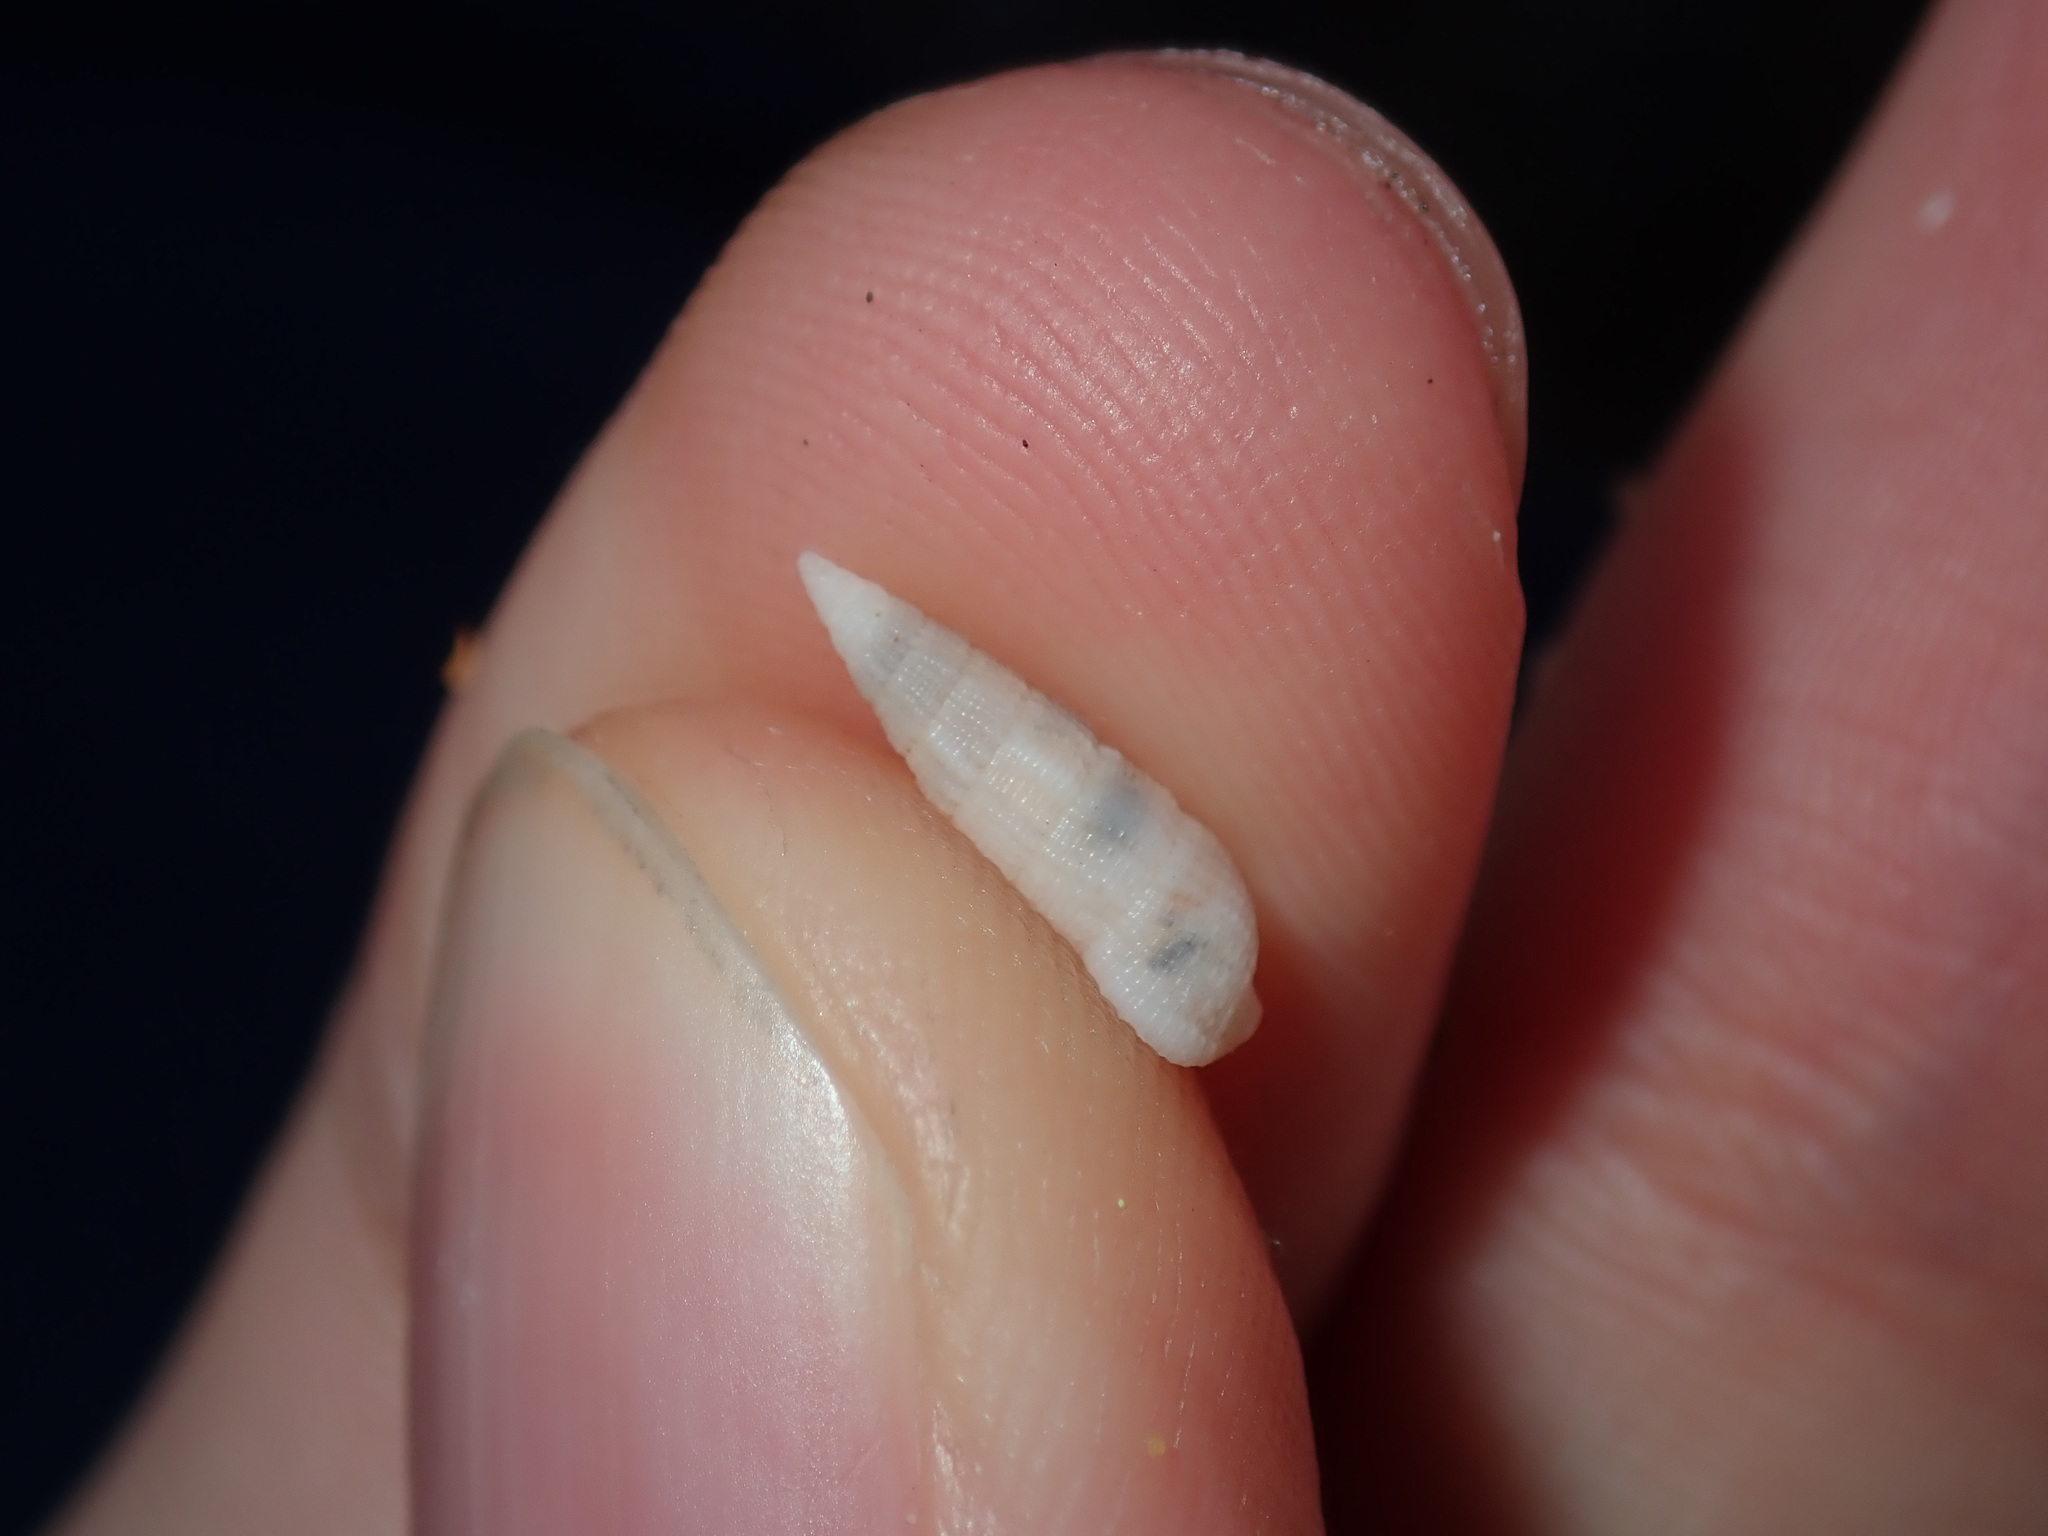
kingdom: Animalia
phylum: Mollusca
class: Gastropoda
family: Cerithiidae
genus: Cerithium
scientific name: Cerithium nesioticum
